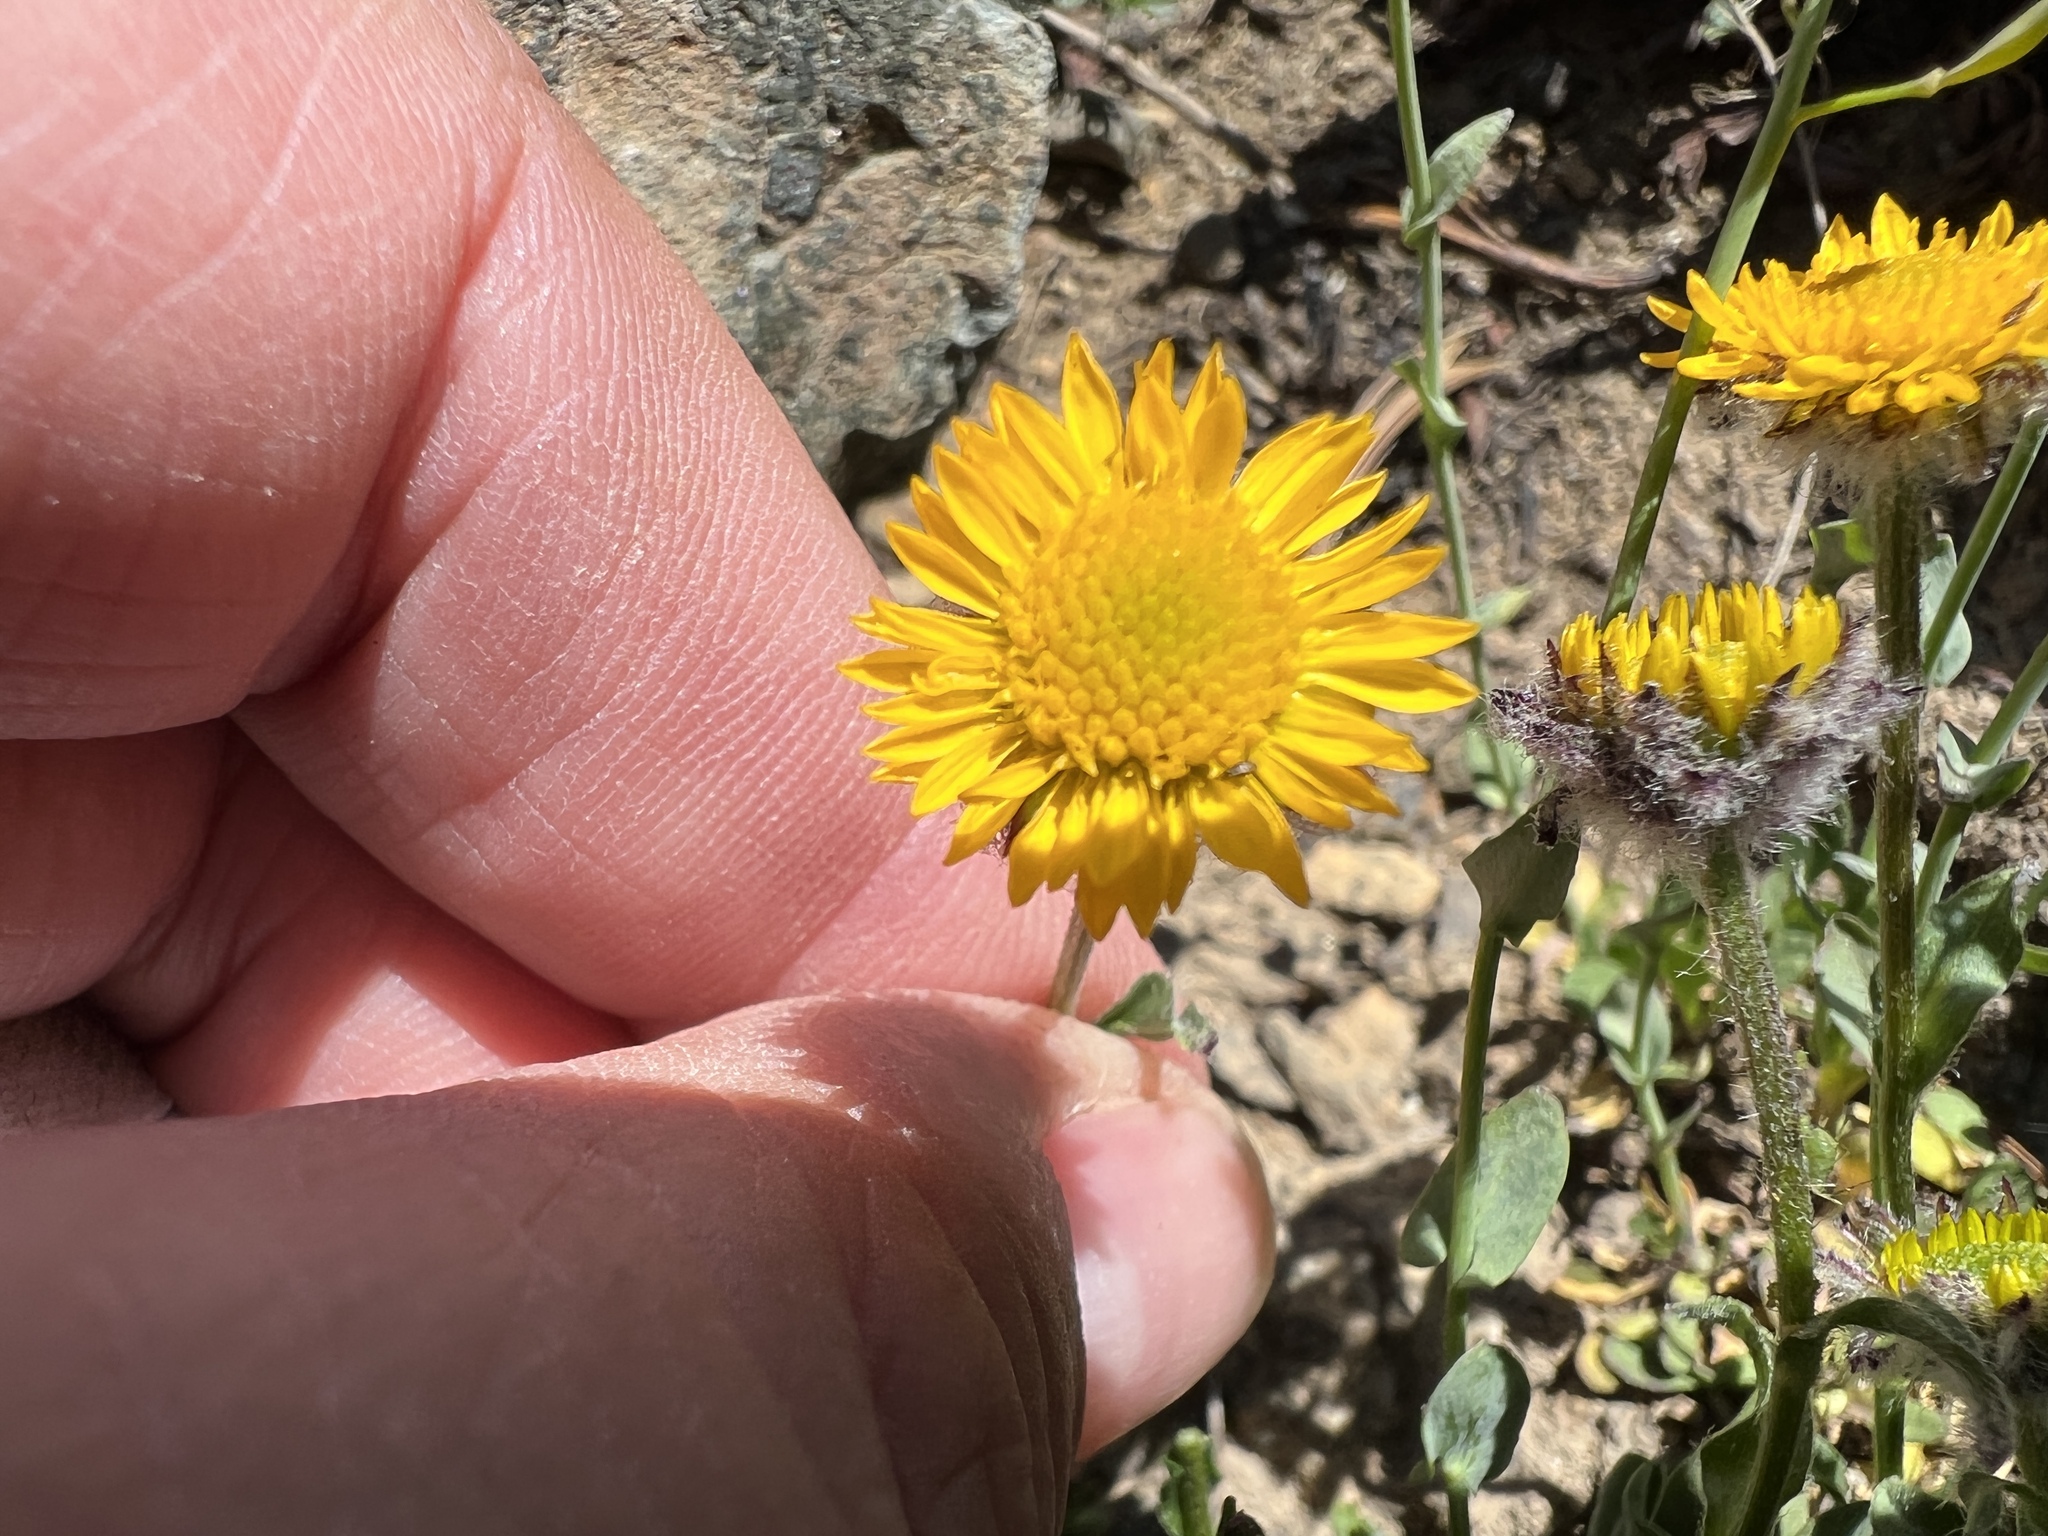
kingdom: Plantae
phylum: Tracheophyta
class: Magnoliopsida
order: Asterales
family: Asteraceae
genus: Erigeron
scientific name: Erigeron aureus
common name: Alpine yellow fleabane
